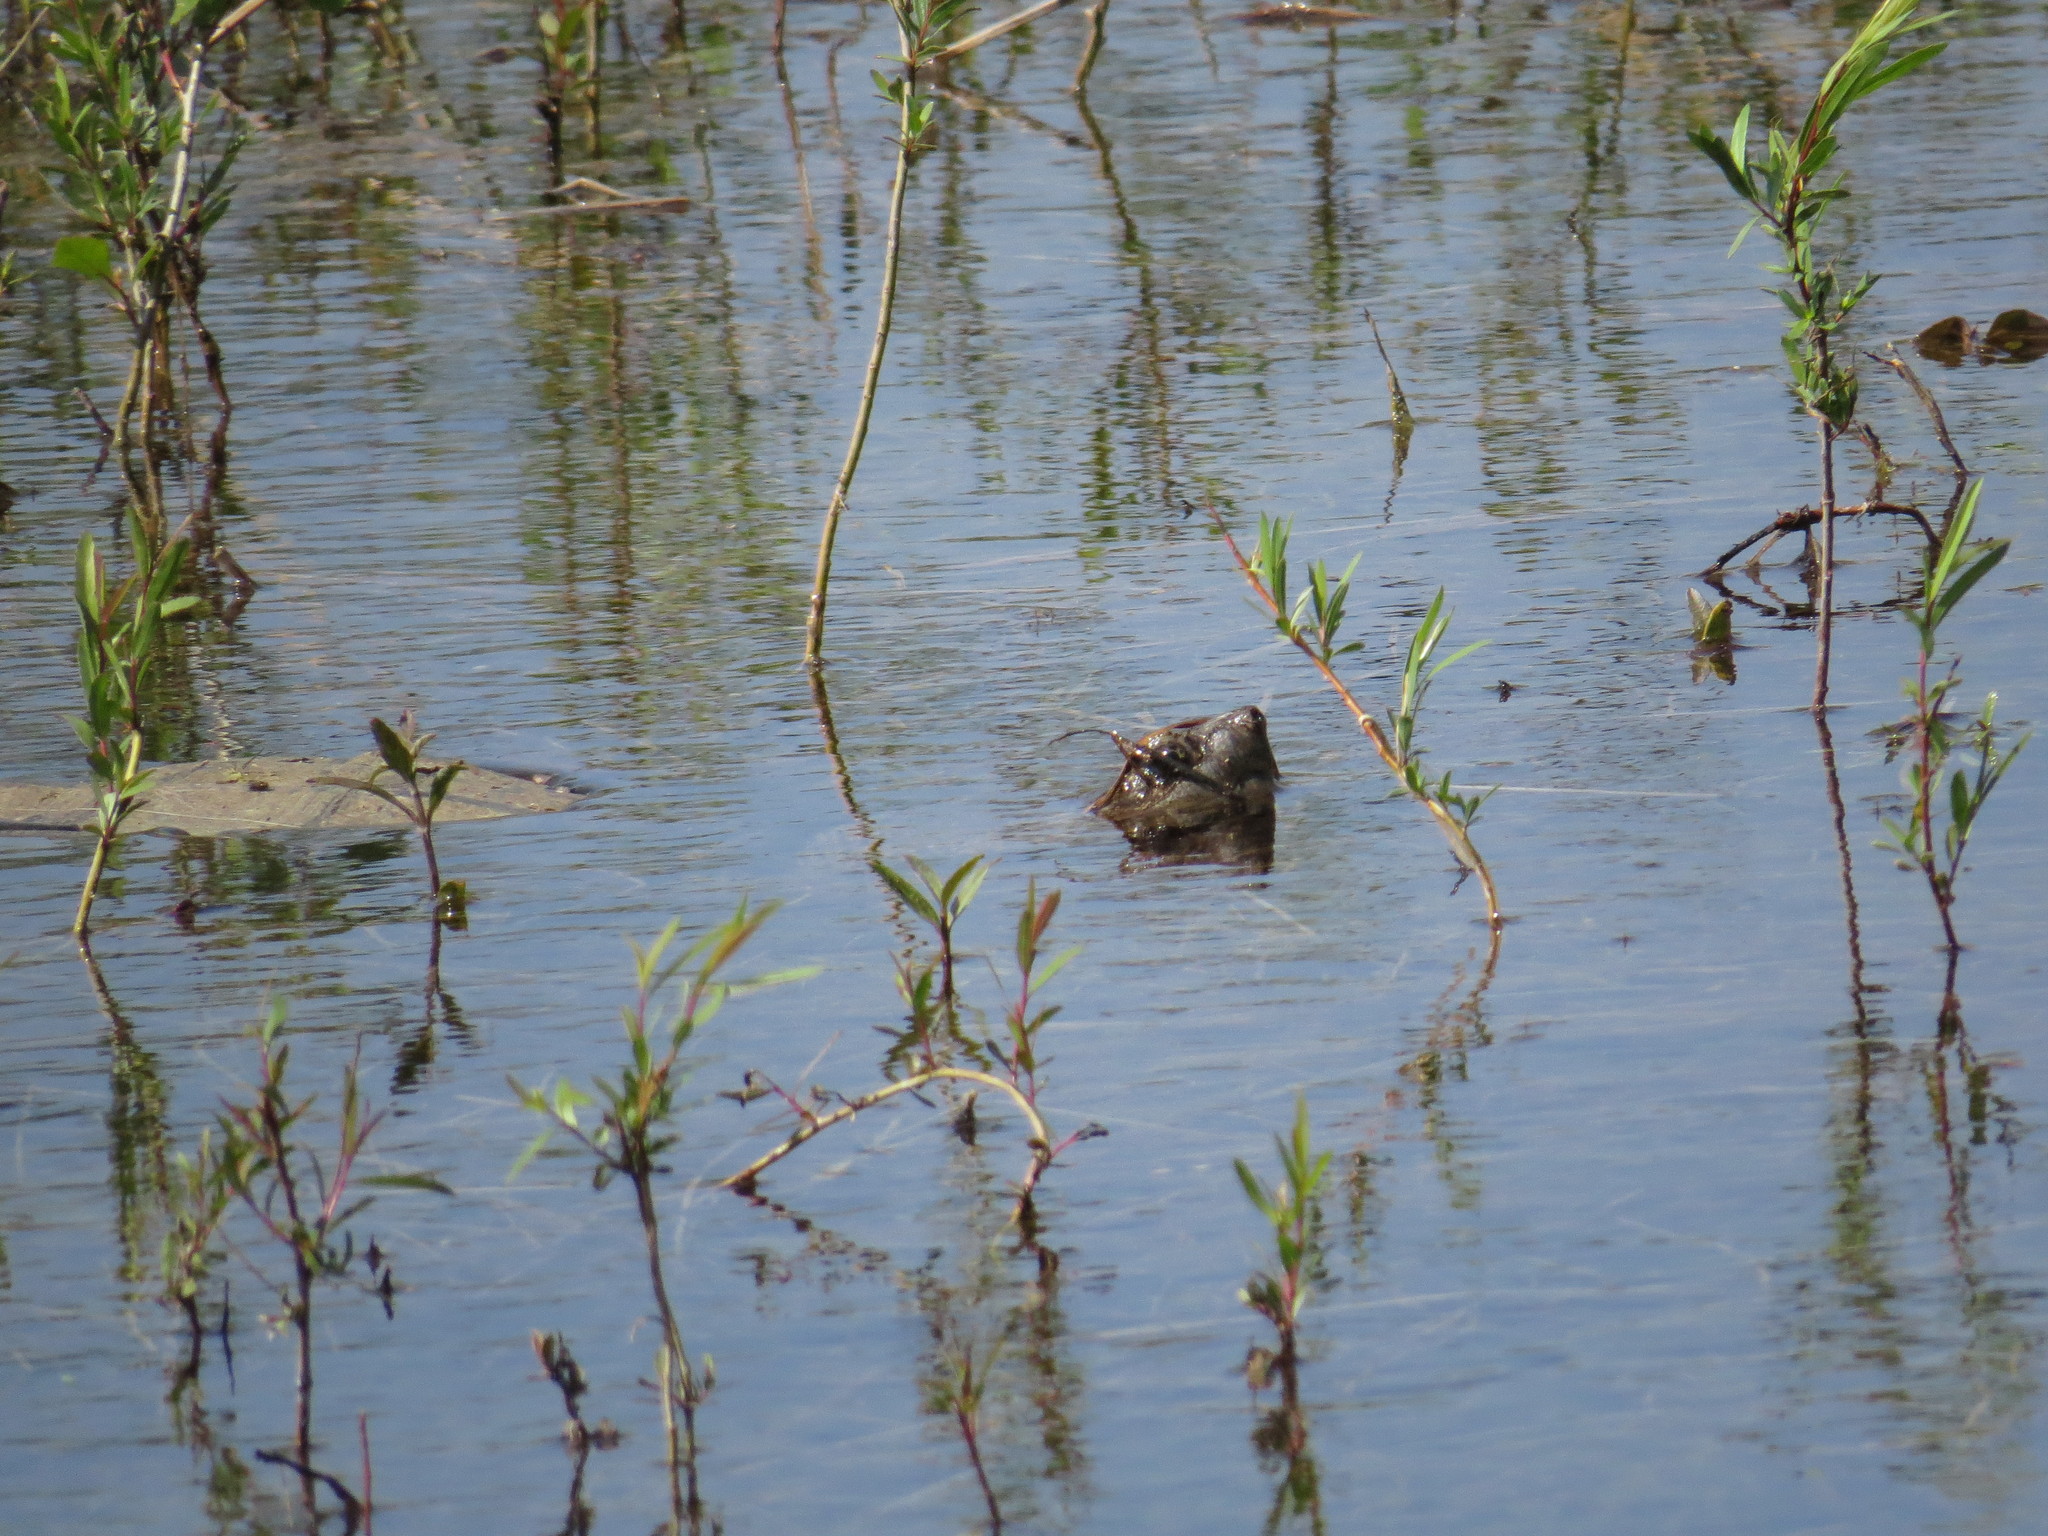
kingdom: Animalia
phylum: Chordata
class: Testudines
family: Chelydridae
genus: Chelydra
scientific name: Chelydra serpentina
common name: Common snapping turtle
